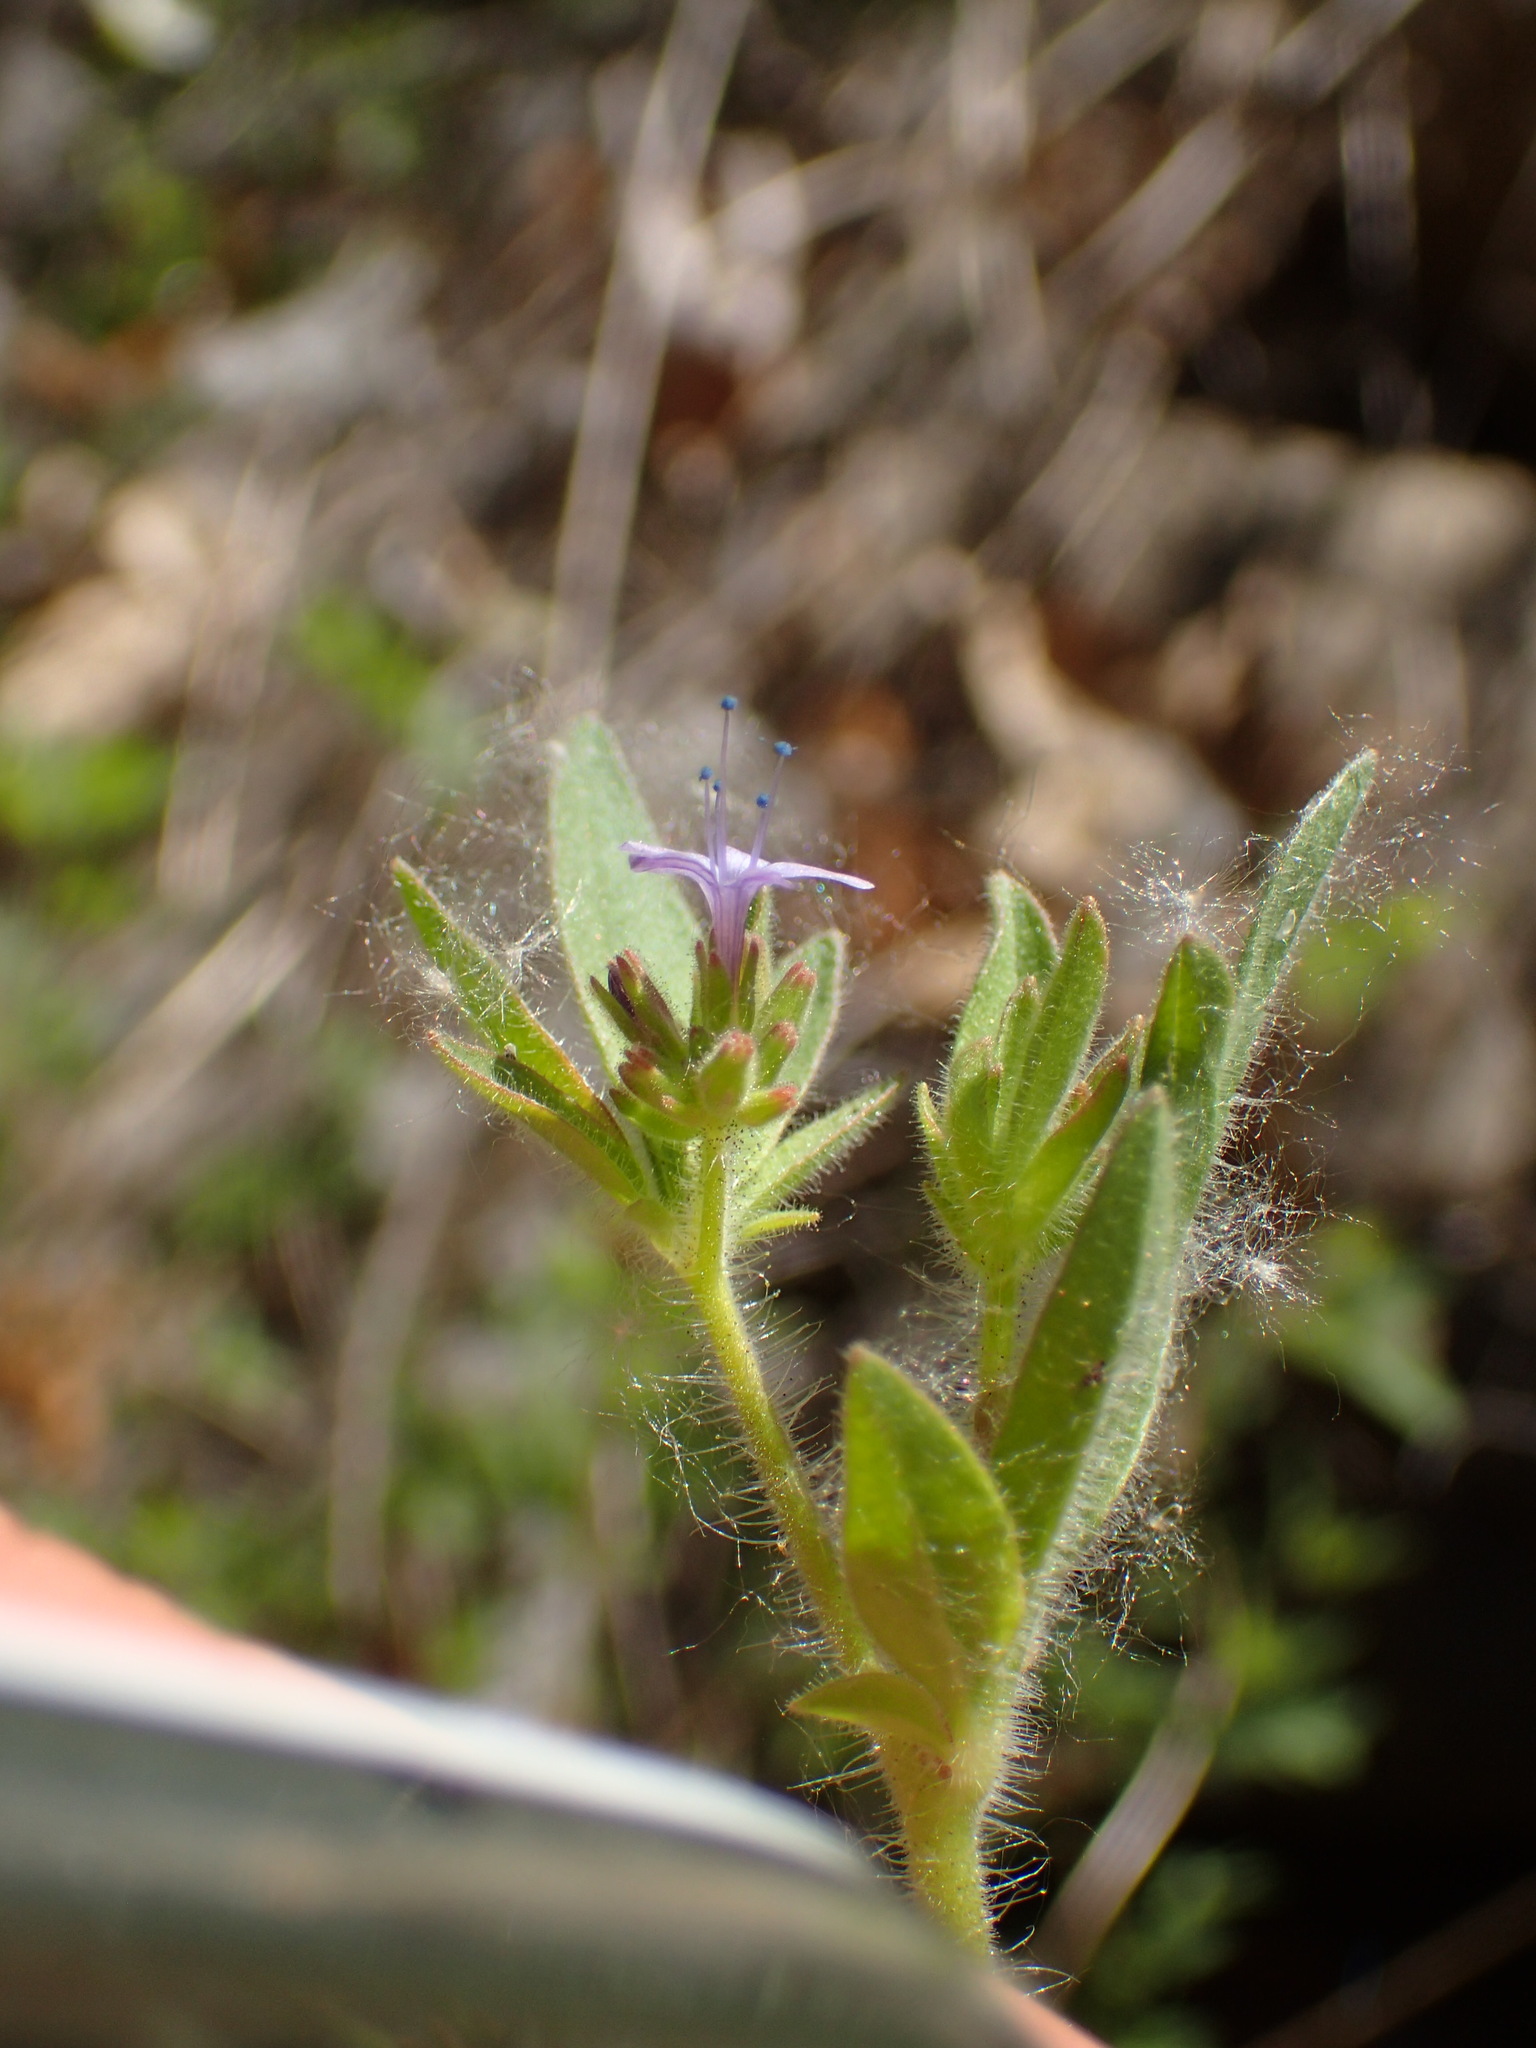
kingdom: Plantae
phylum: Tracheophyta
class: Magnoliopsida
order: Ericales
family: Polemoniaceae
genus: Allophyllum
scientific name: Allophyllum glutinosum
